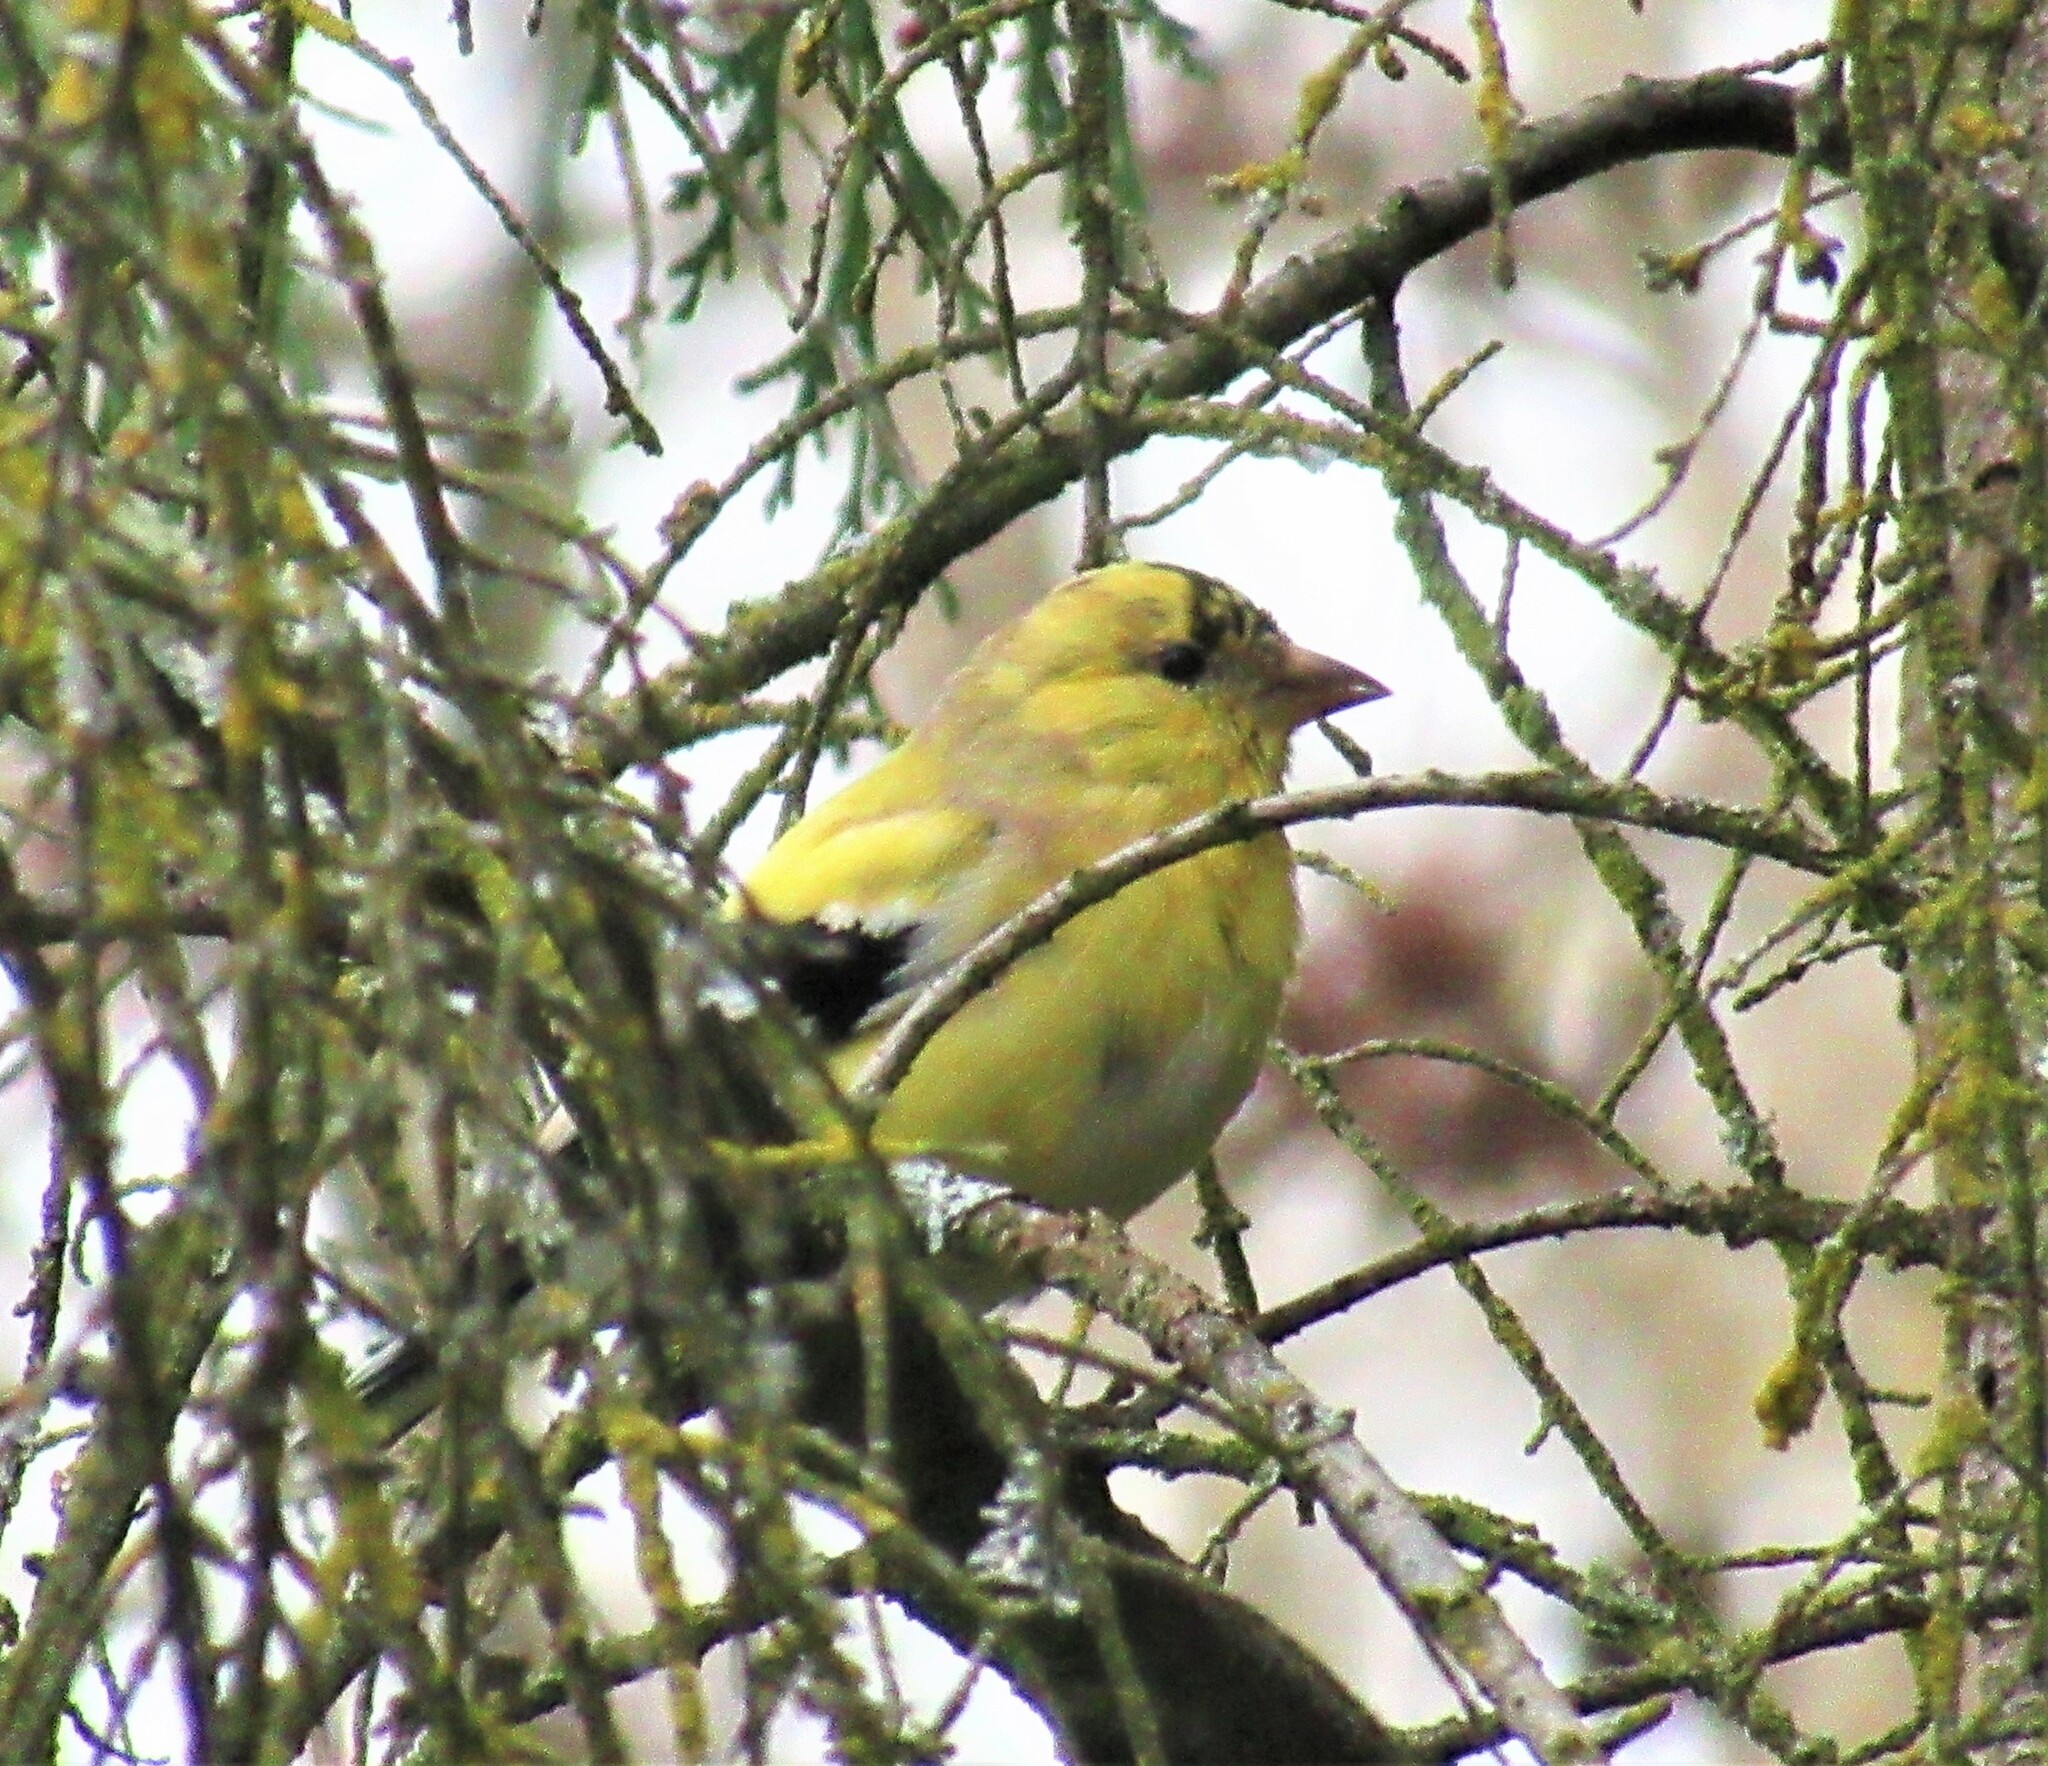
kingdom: Animalia
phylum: Chordata
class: Aves
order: Passeriformes
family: Fringillidae
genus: Spinus
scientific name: Spinus tristis
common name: American goldfinch
